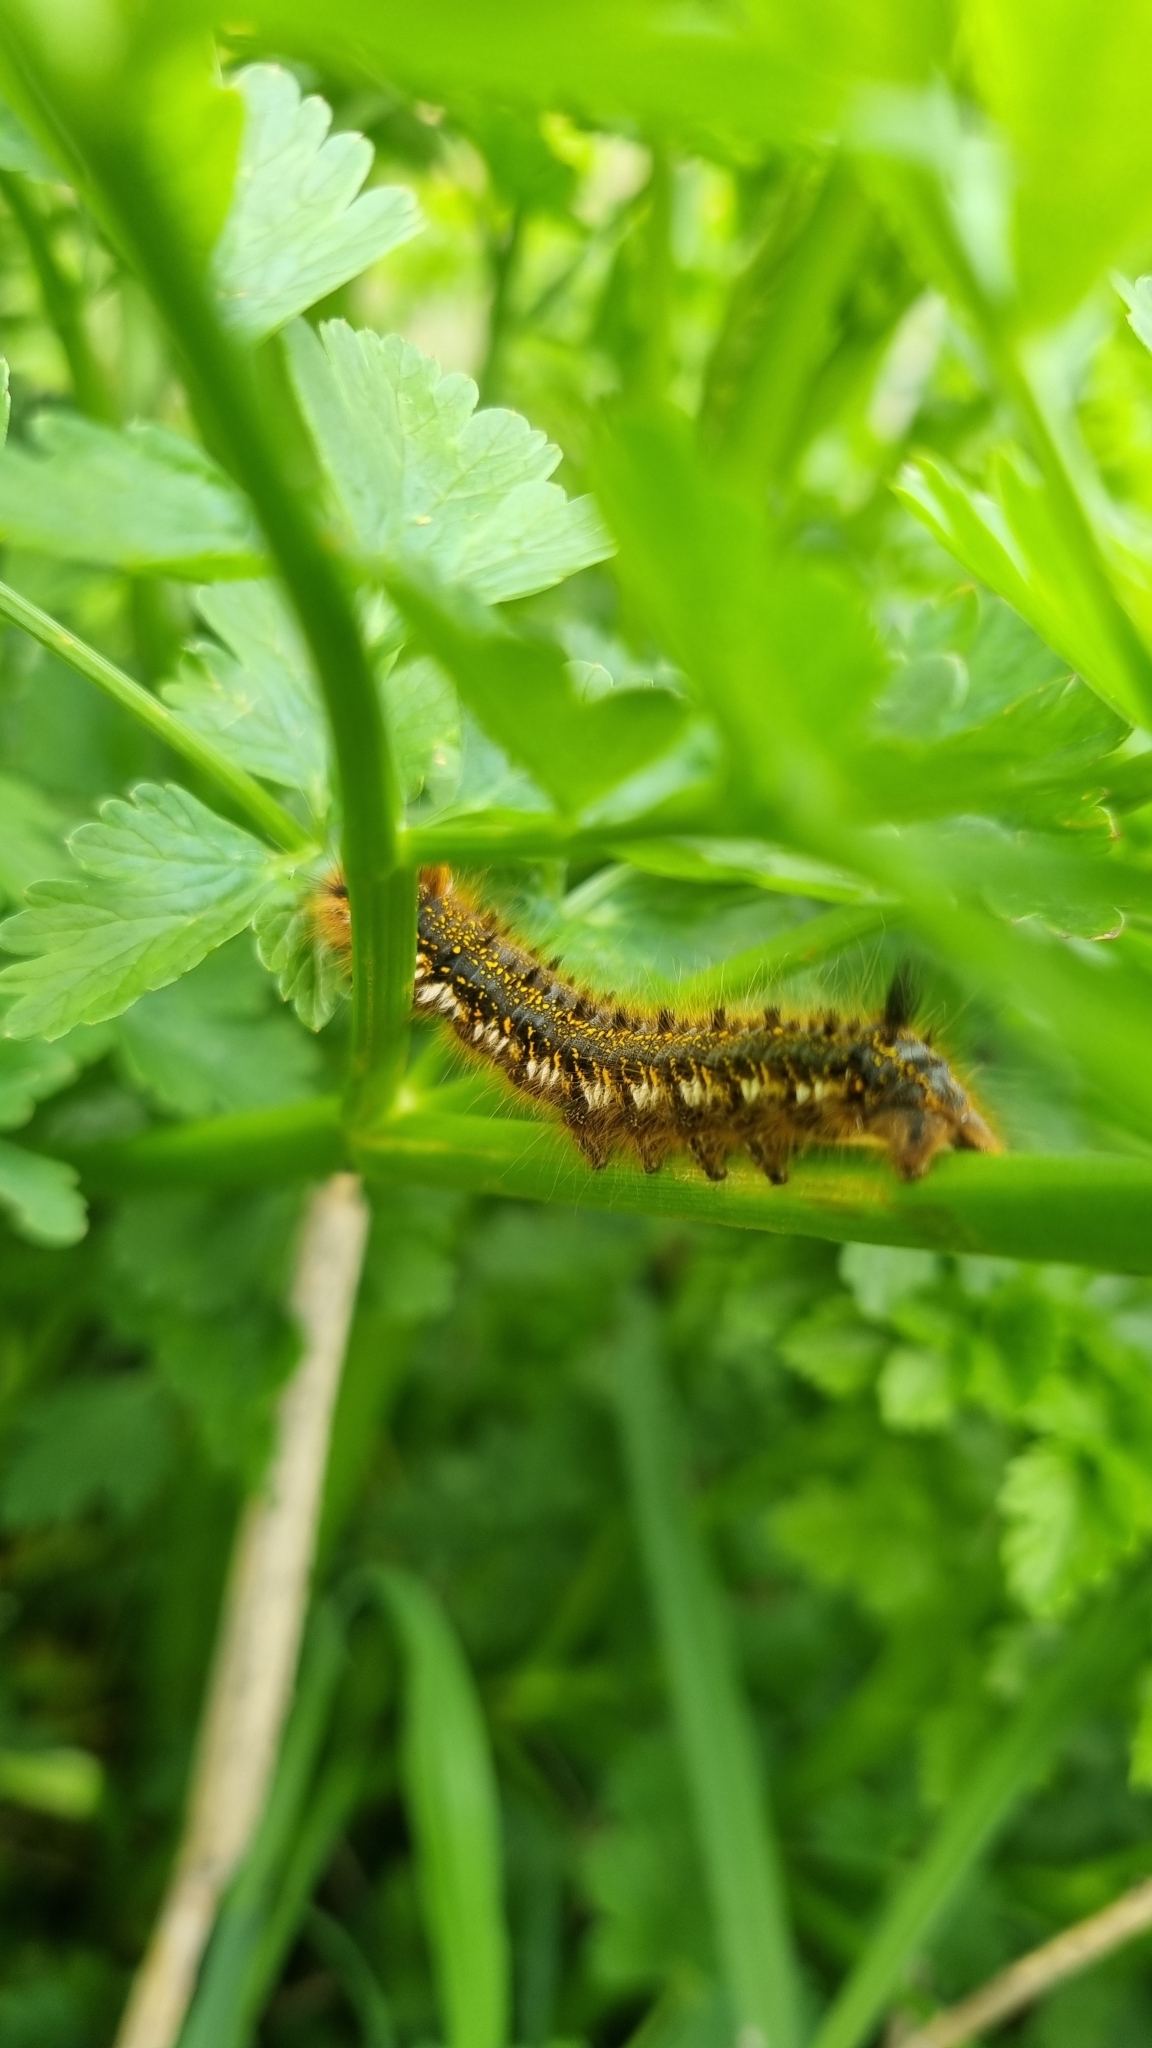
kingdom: Animalia
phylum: Arthropoda
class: Insecta
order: Lepidoptera
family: Lasiocampidae
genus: Euthrix
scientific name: Euthrix potatoria
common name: Drinker
